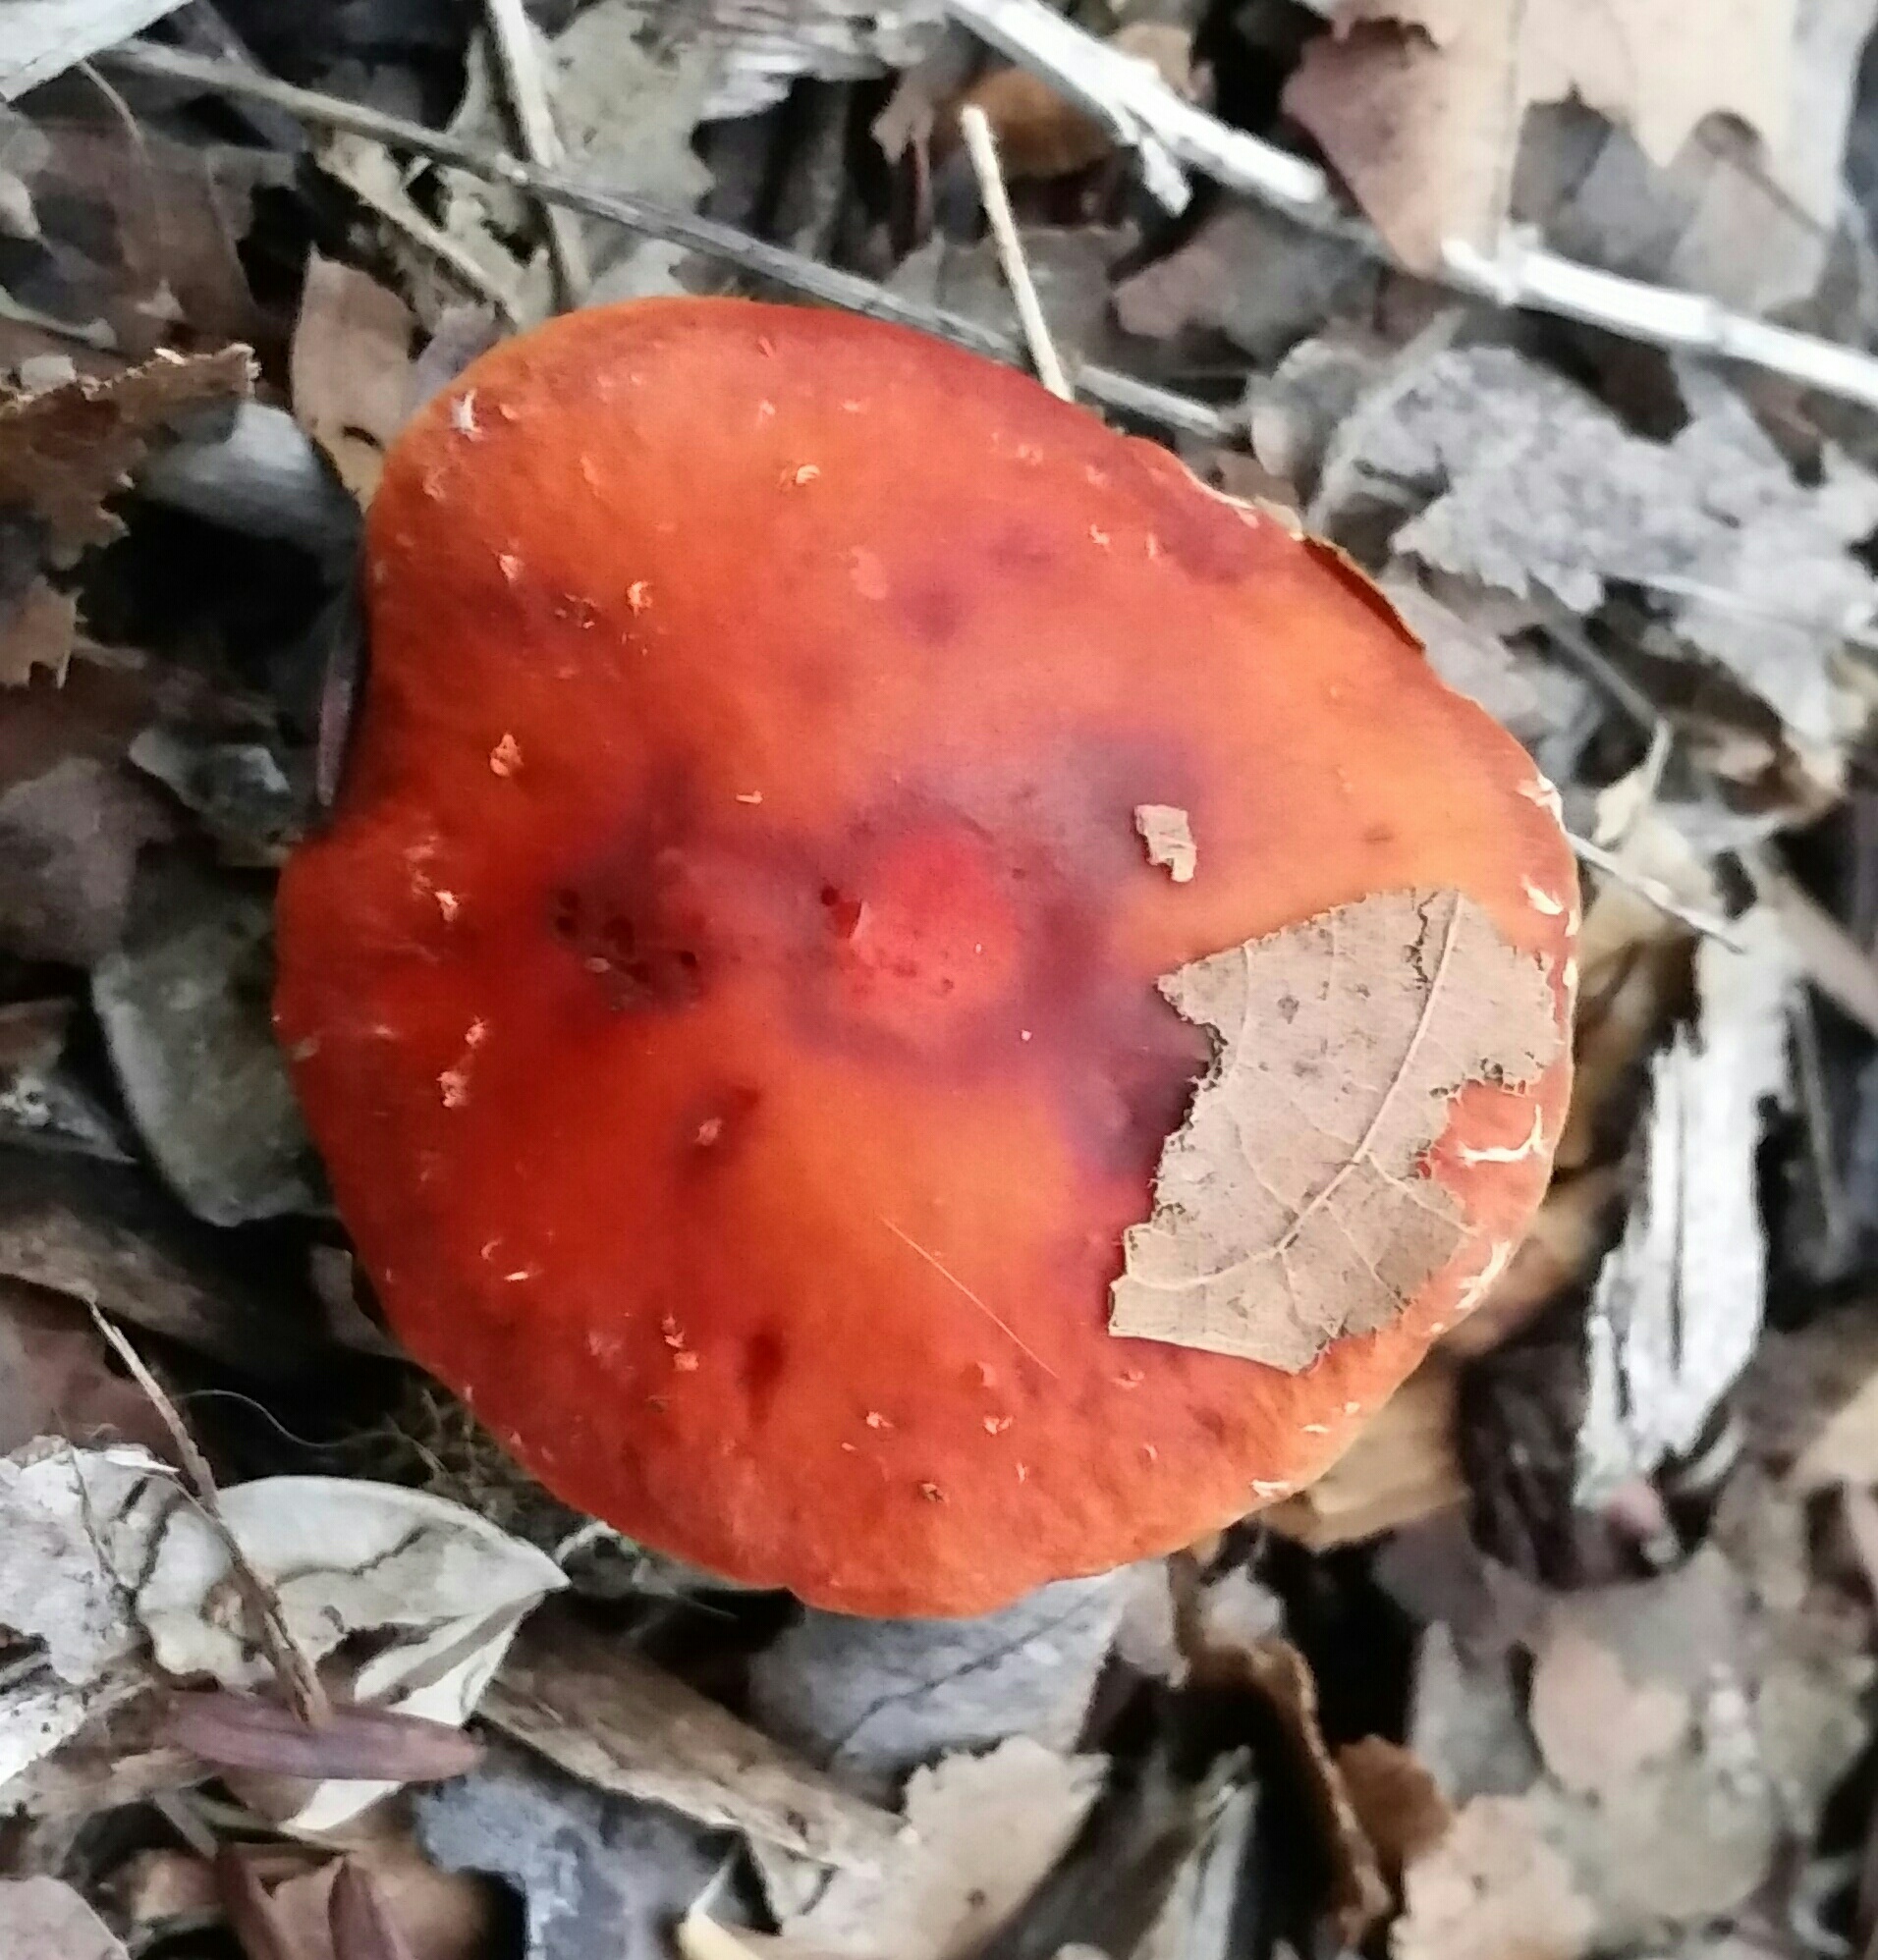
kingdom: Fungi
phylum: Basidiomycota
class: Agaricomycetes
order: Agaricales
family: Strophariaceae
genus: Leratiomyces
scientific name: Leratiomyces ceres
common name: Redlead roundhead
